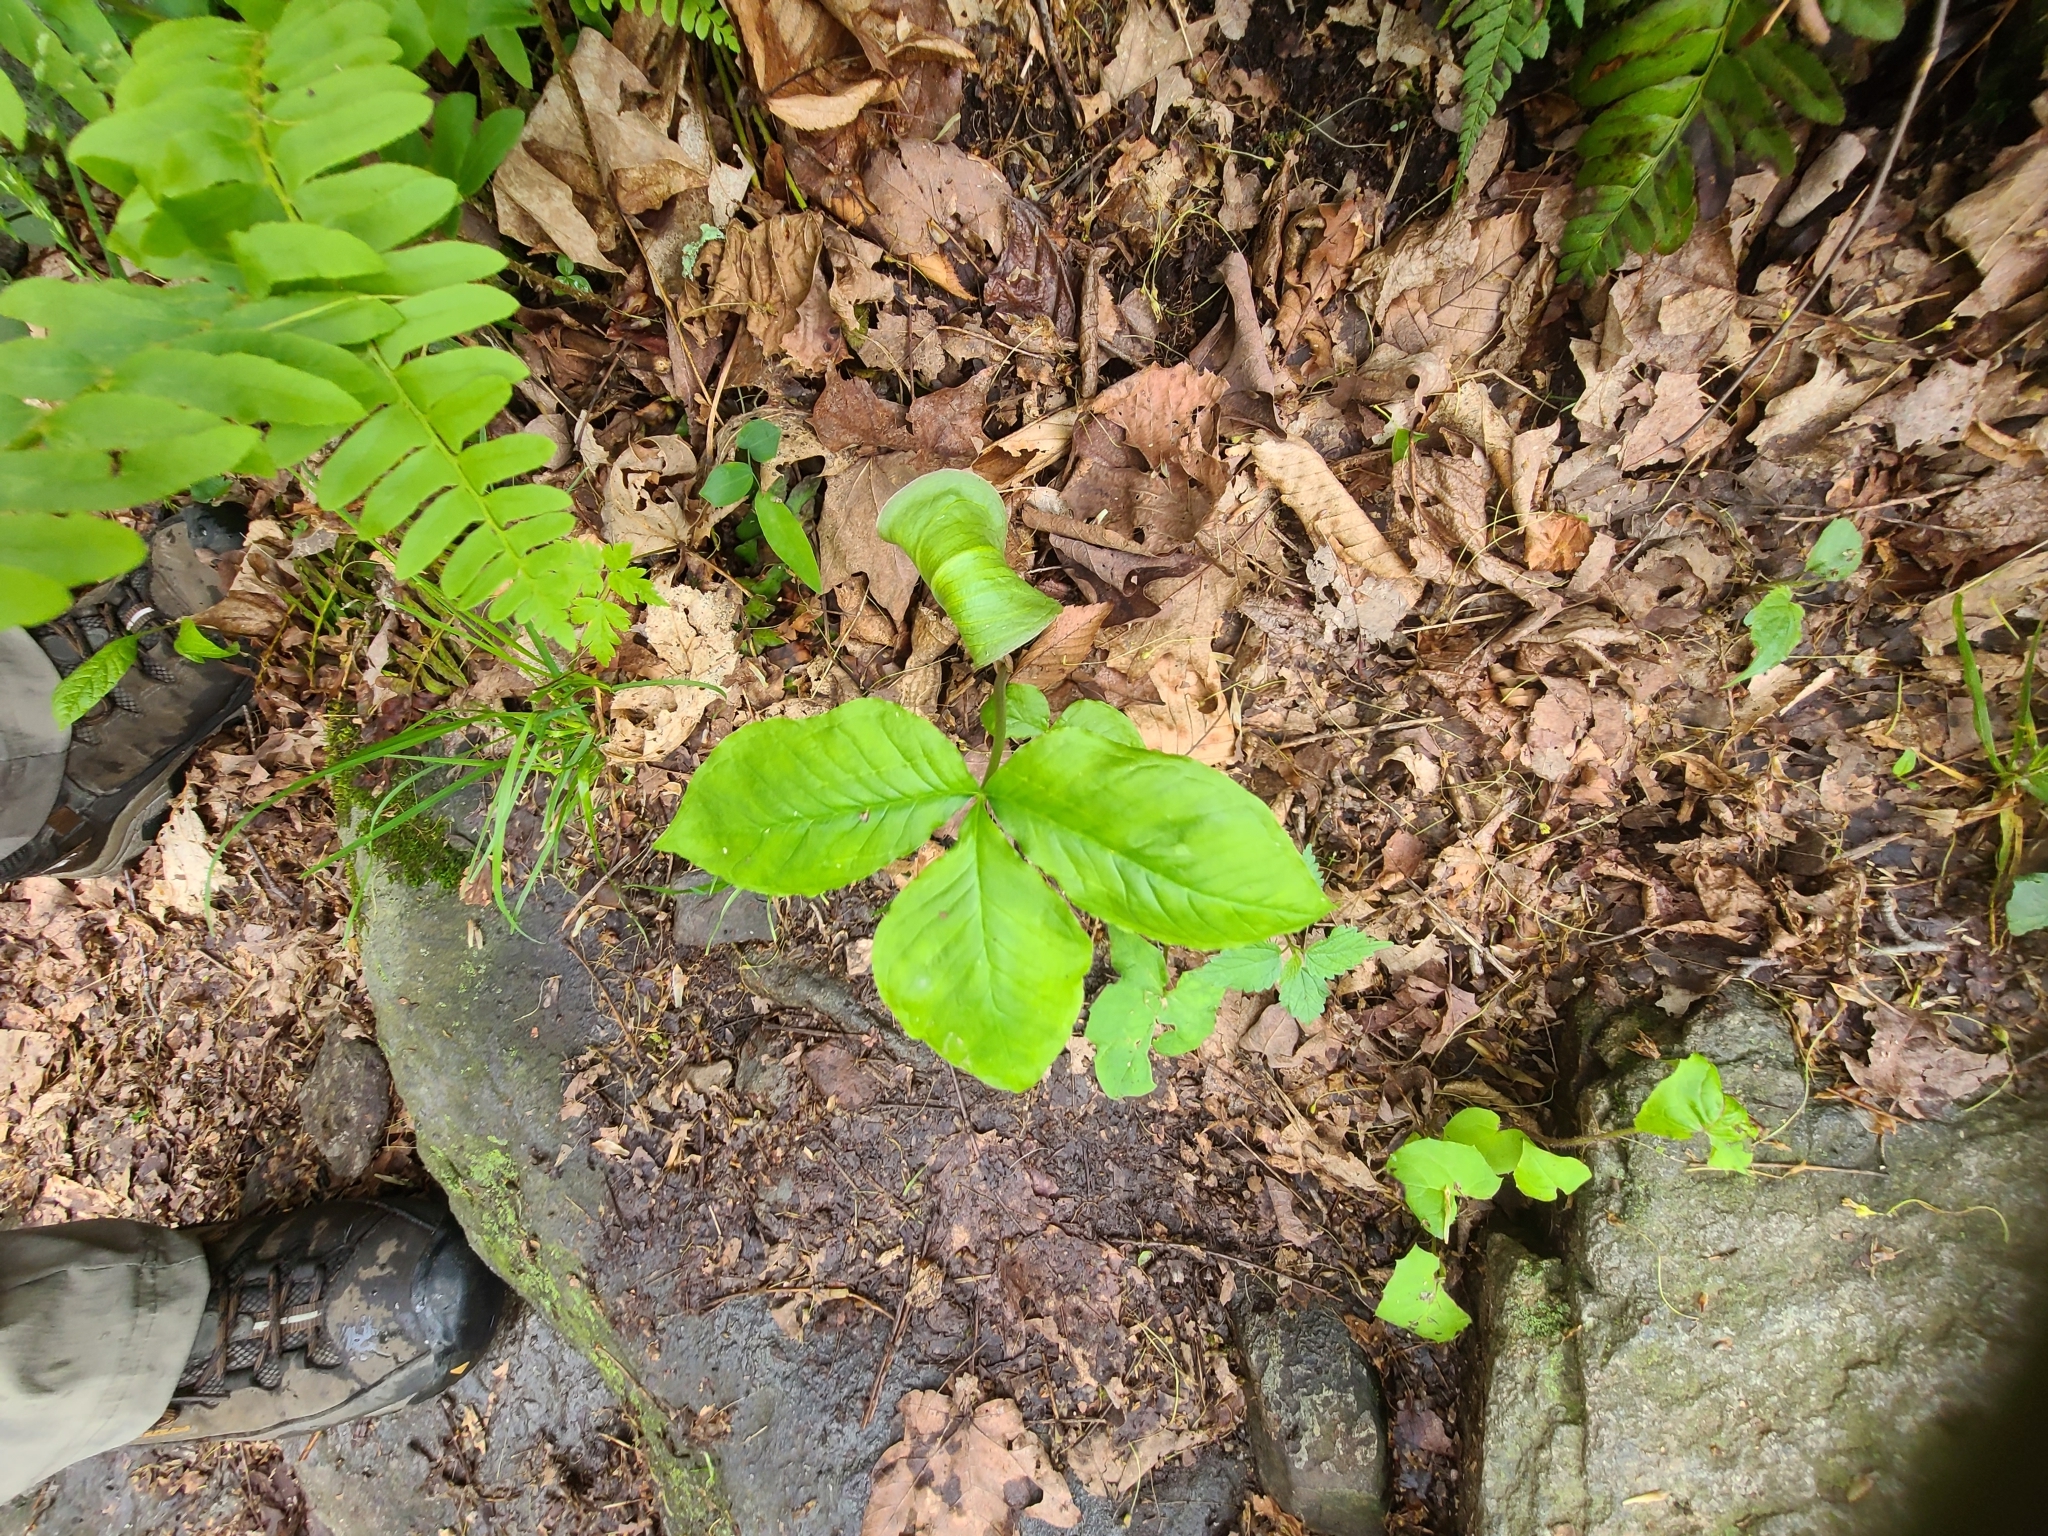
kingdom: Plantae
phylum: Tracheophyta
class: Liliopsida
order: Alismatales
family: Araceae
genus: Arisaema
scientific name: Arisaema triphyllum
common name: Jack-in-the-pulpit
